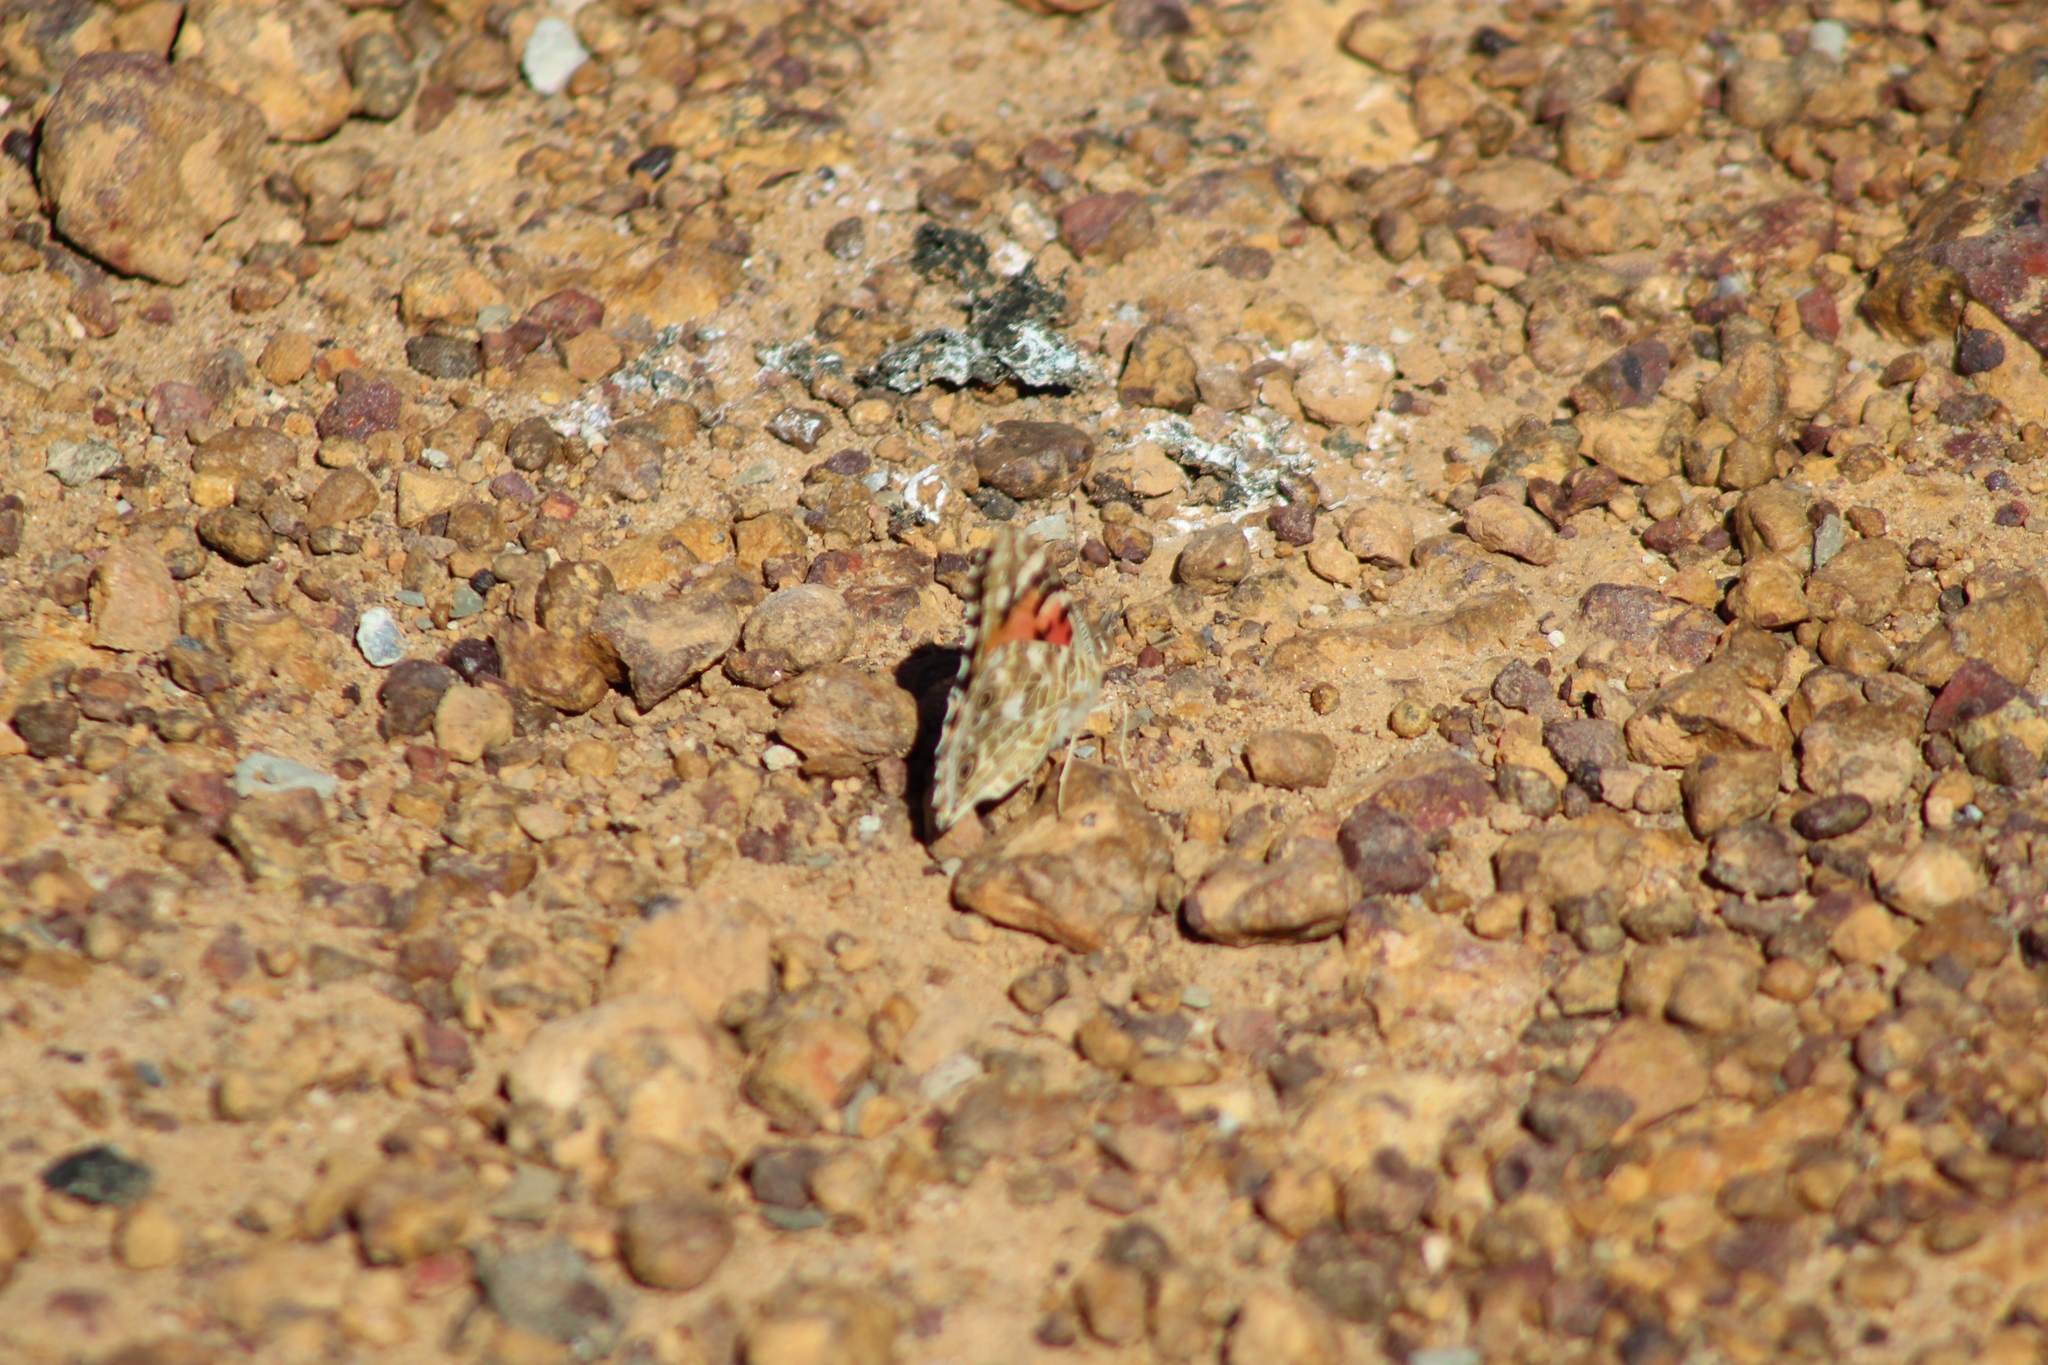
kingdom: Animalia
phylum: Arthropoda
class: Insecta
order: Lepidoptera
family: Nymphalidae
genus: Vanessa
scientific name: Vanessa cardui
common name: Painted lady
